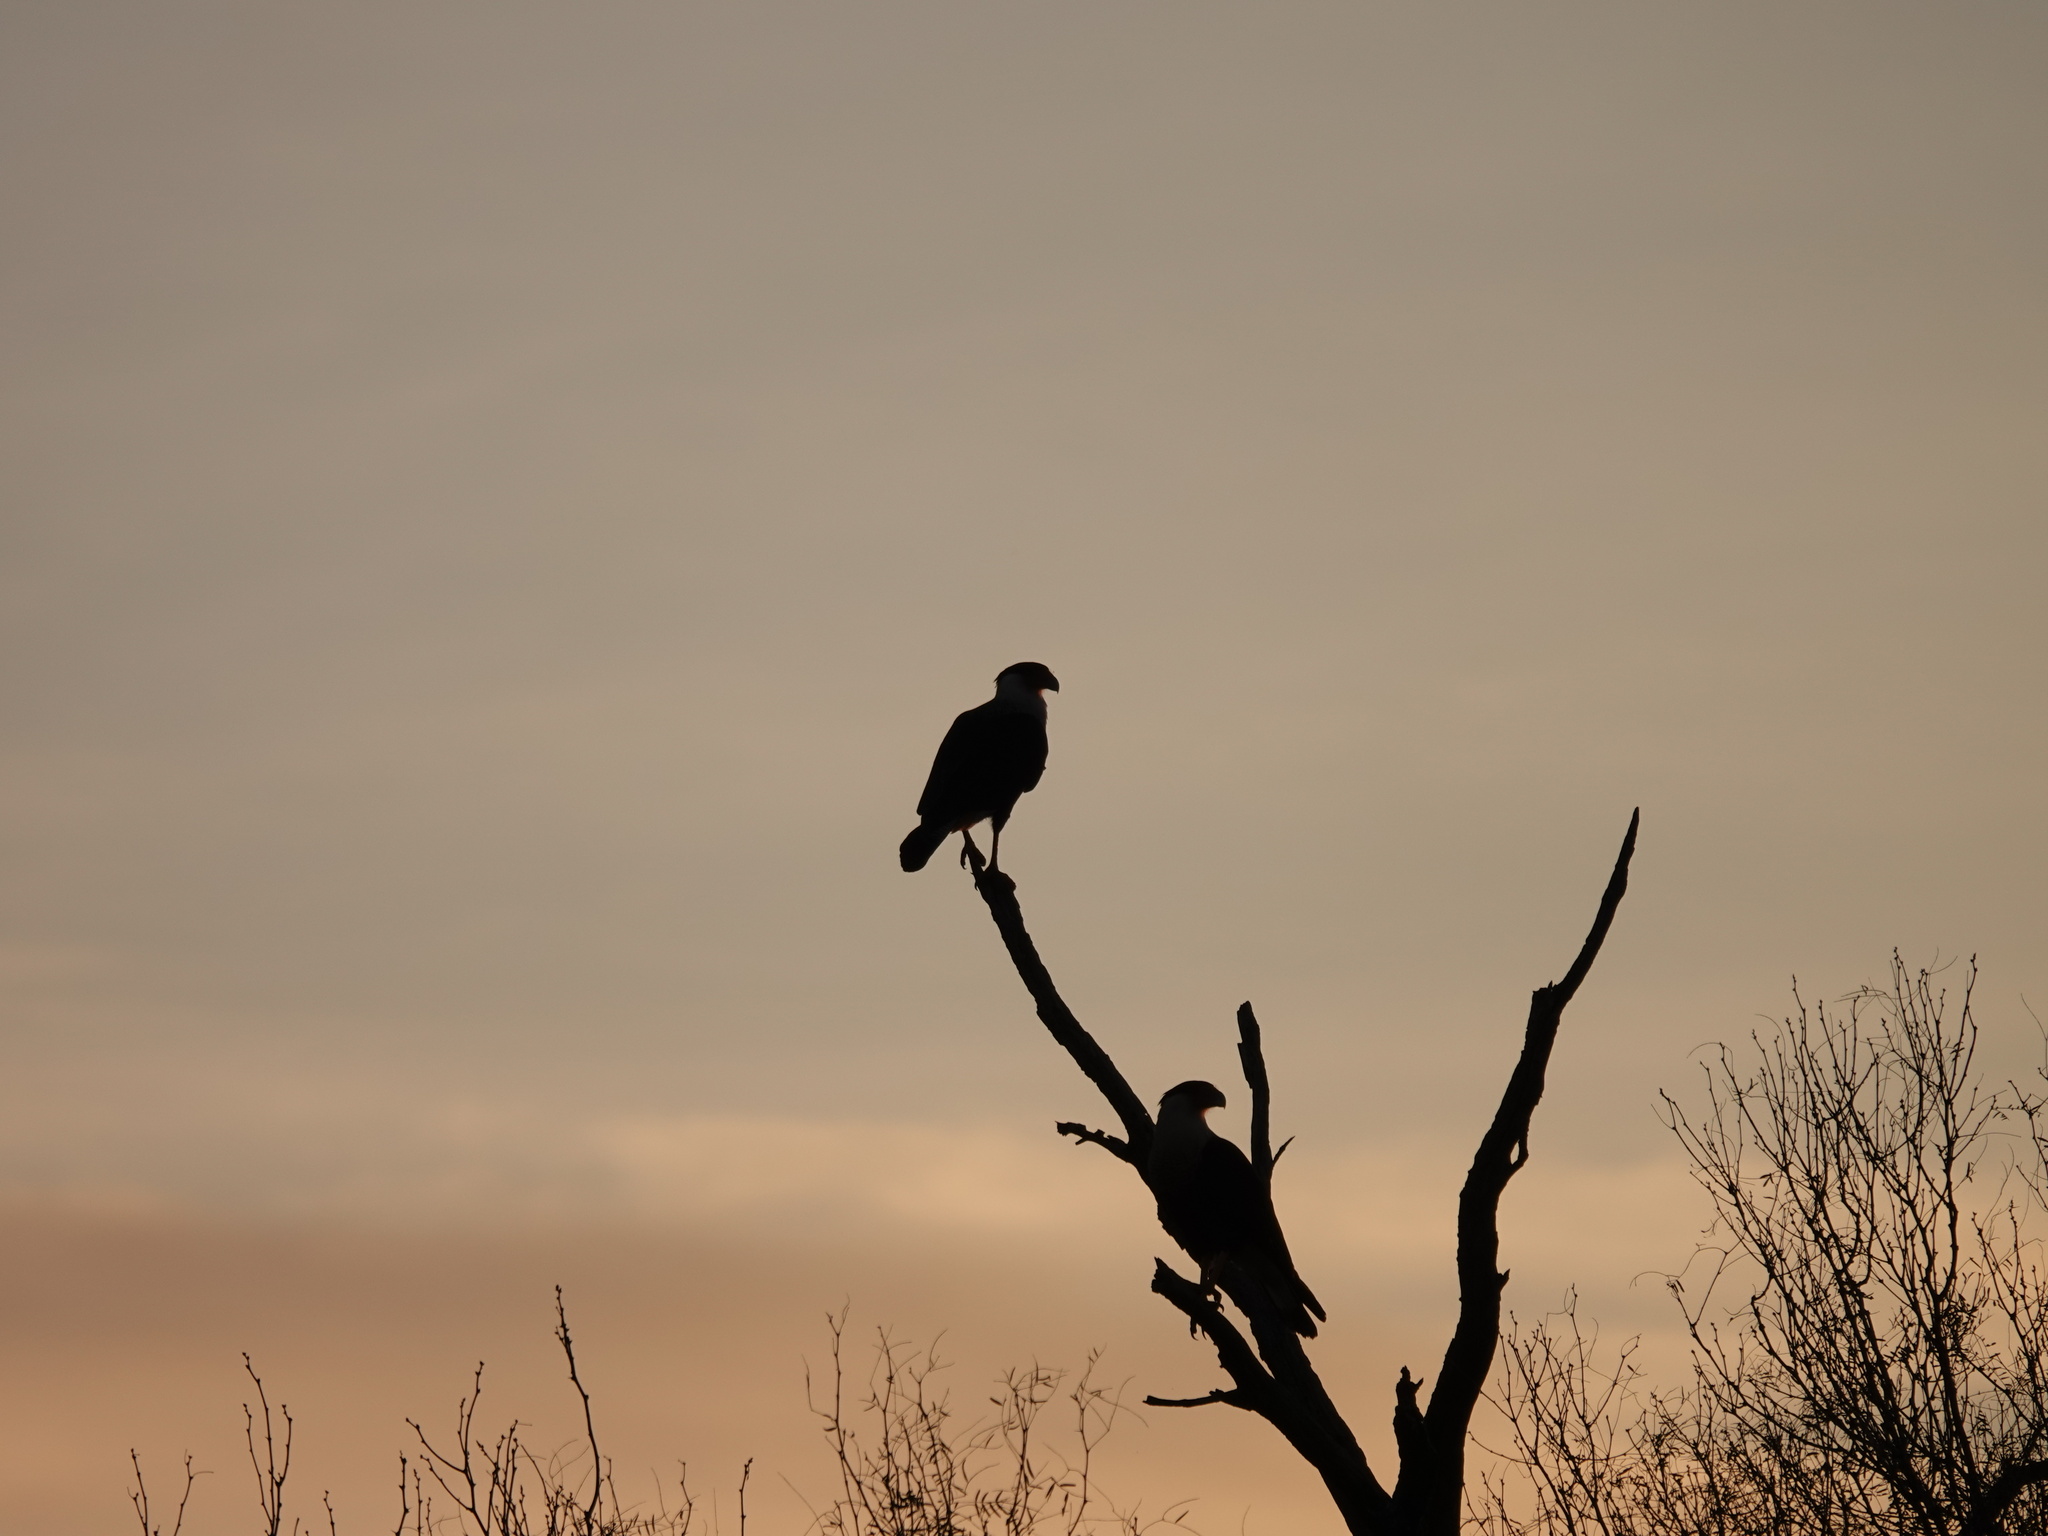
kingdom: Animalia
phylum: Chordata
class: Aves
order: Falconiformes
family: Falconidae
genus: Caracara
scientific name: Caracara plancus
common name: Southern caracara
